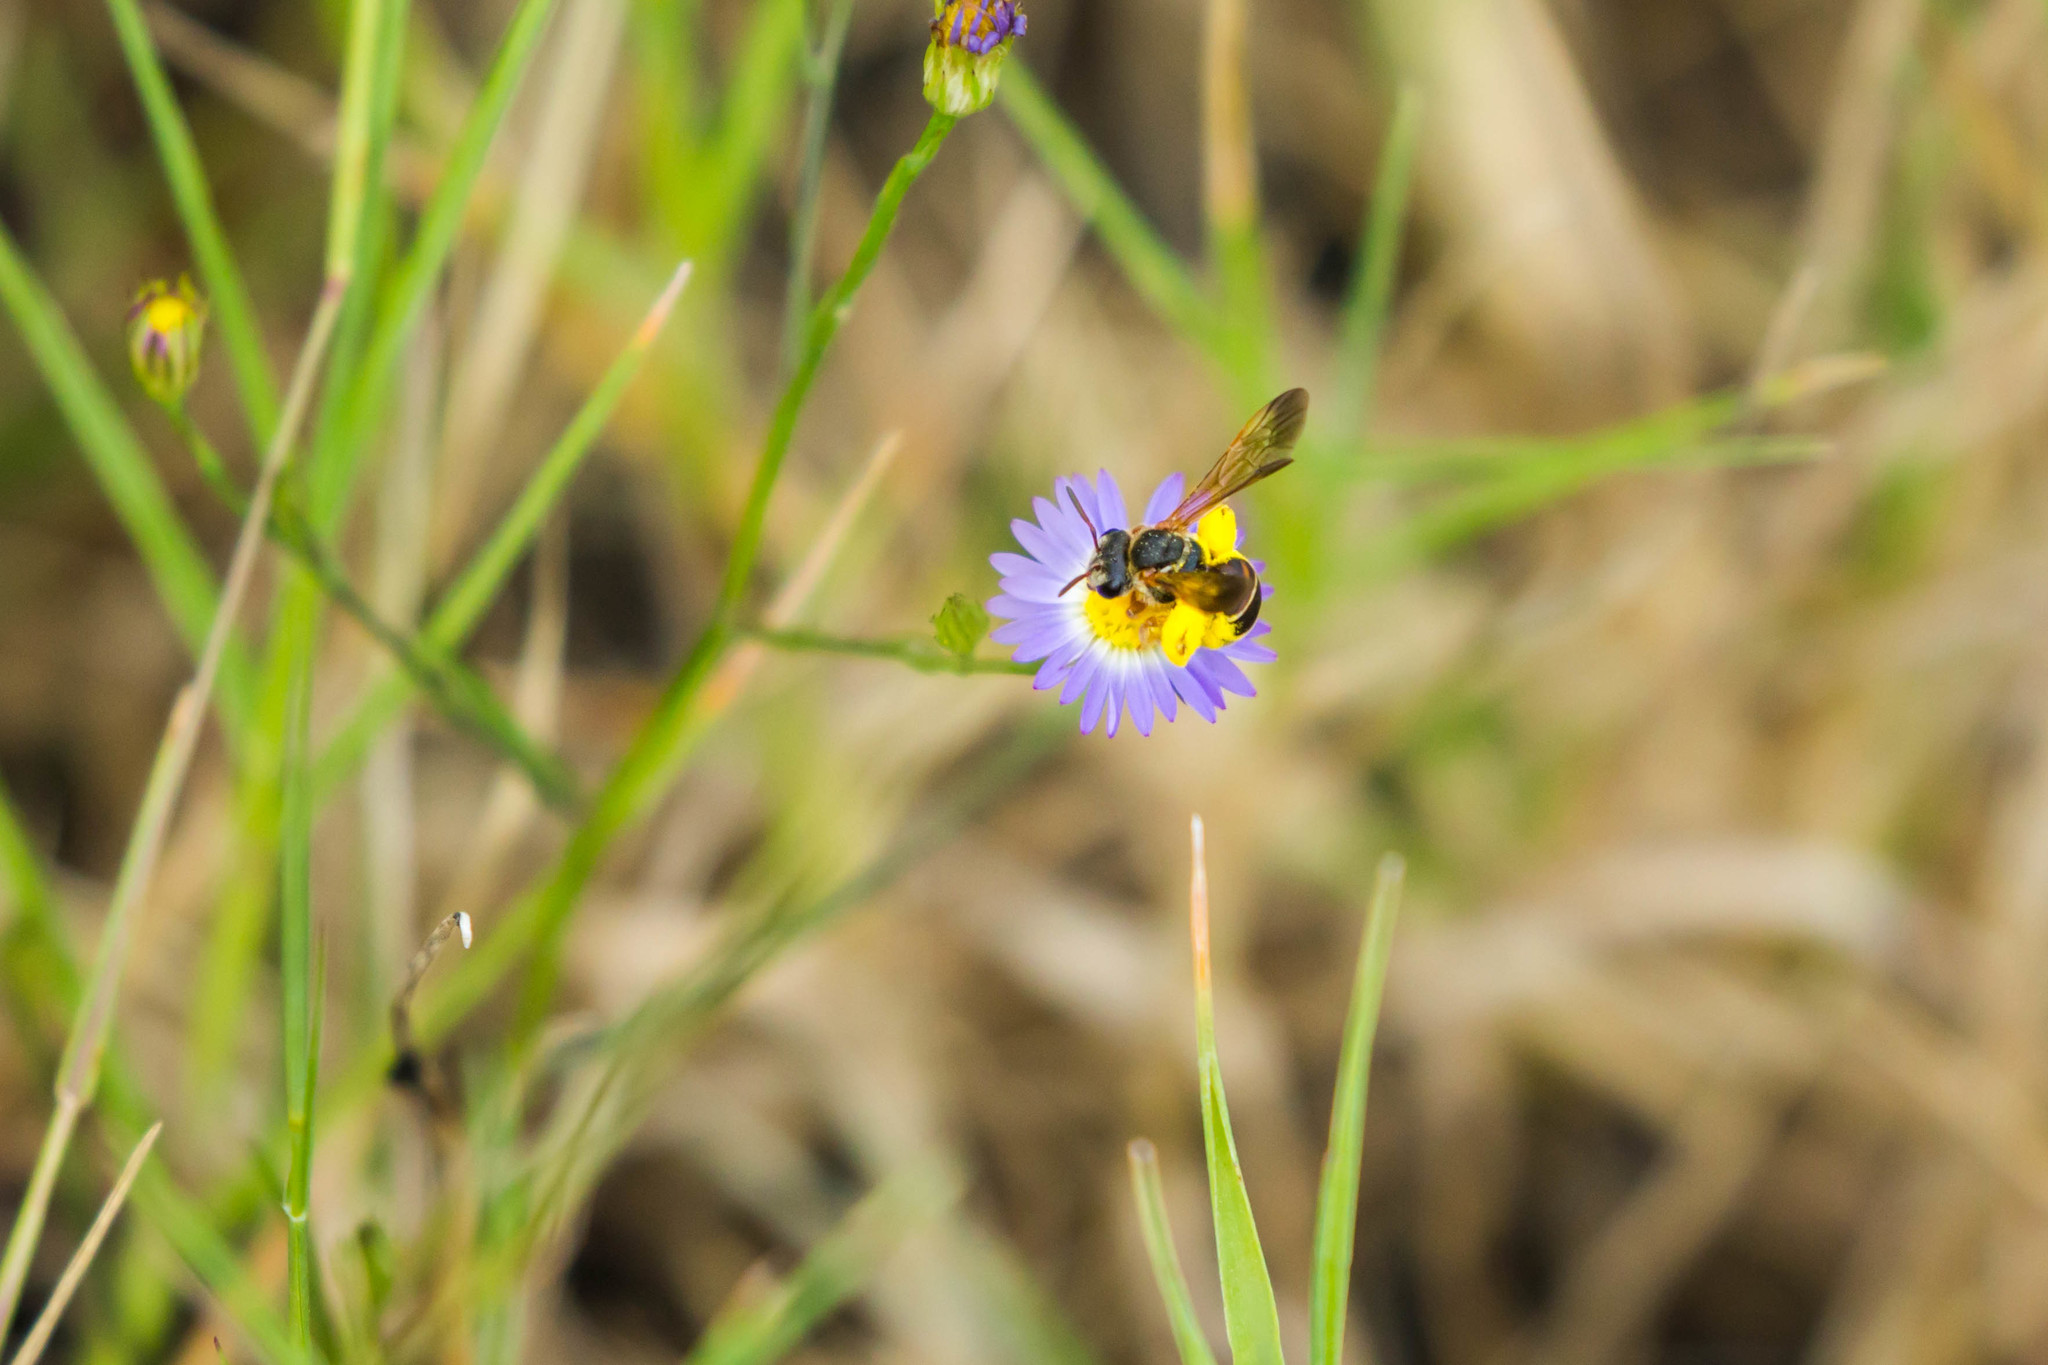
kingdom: Animalia
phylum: Arthropoda
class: Insecta
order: Hymenoptera
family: Halictidae
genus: Dieunomia
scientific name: Dieunomia nevadensis
